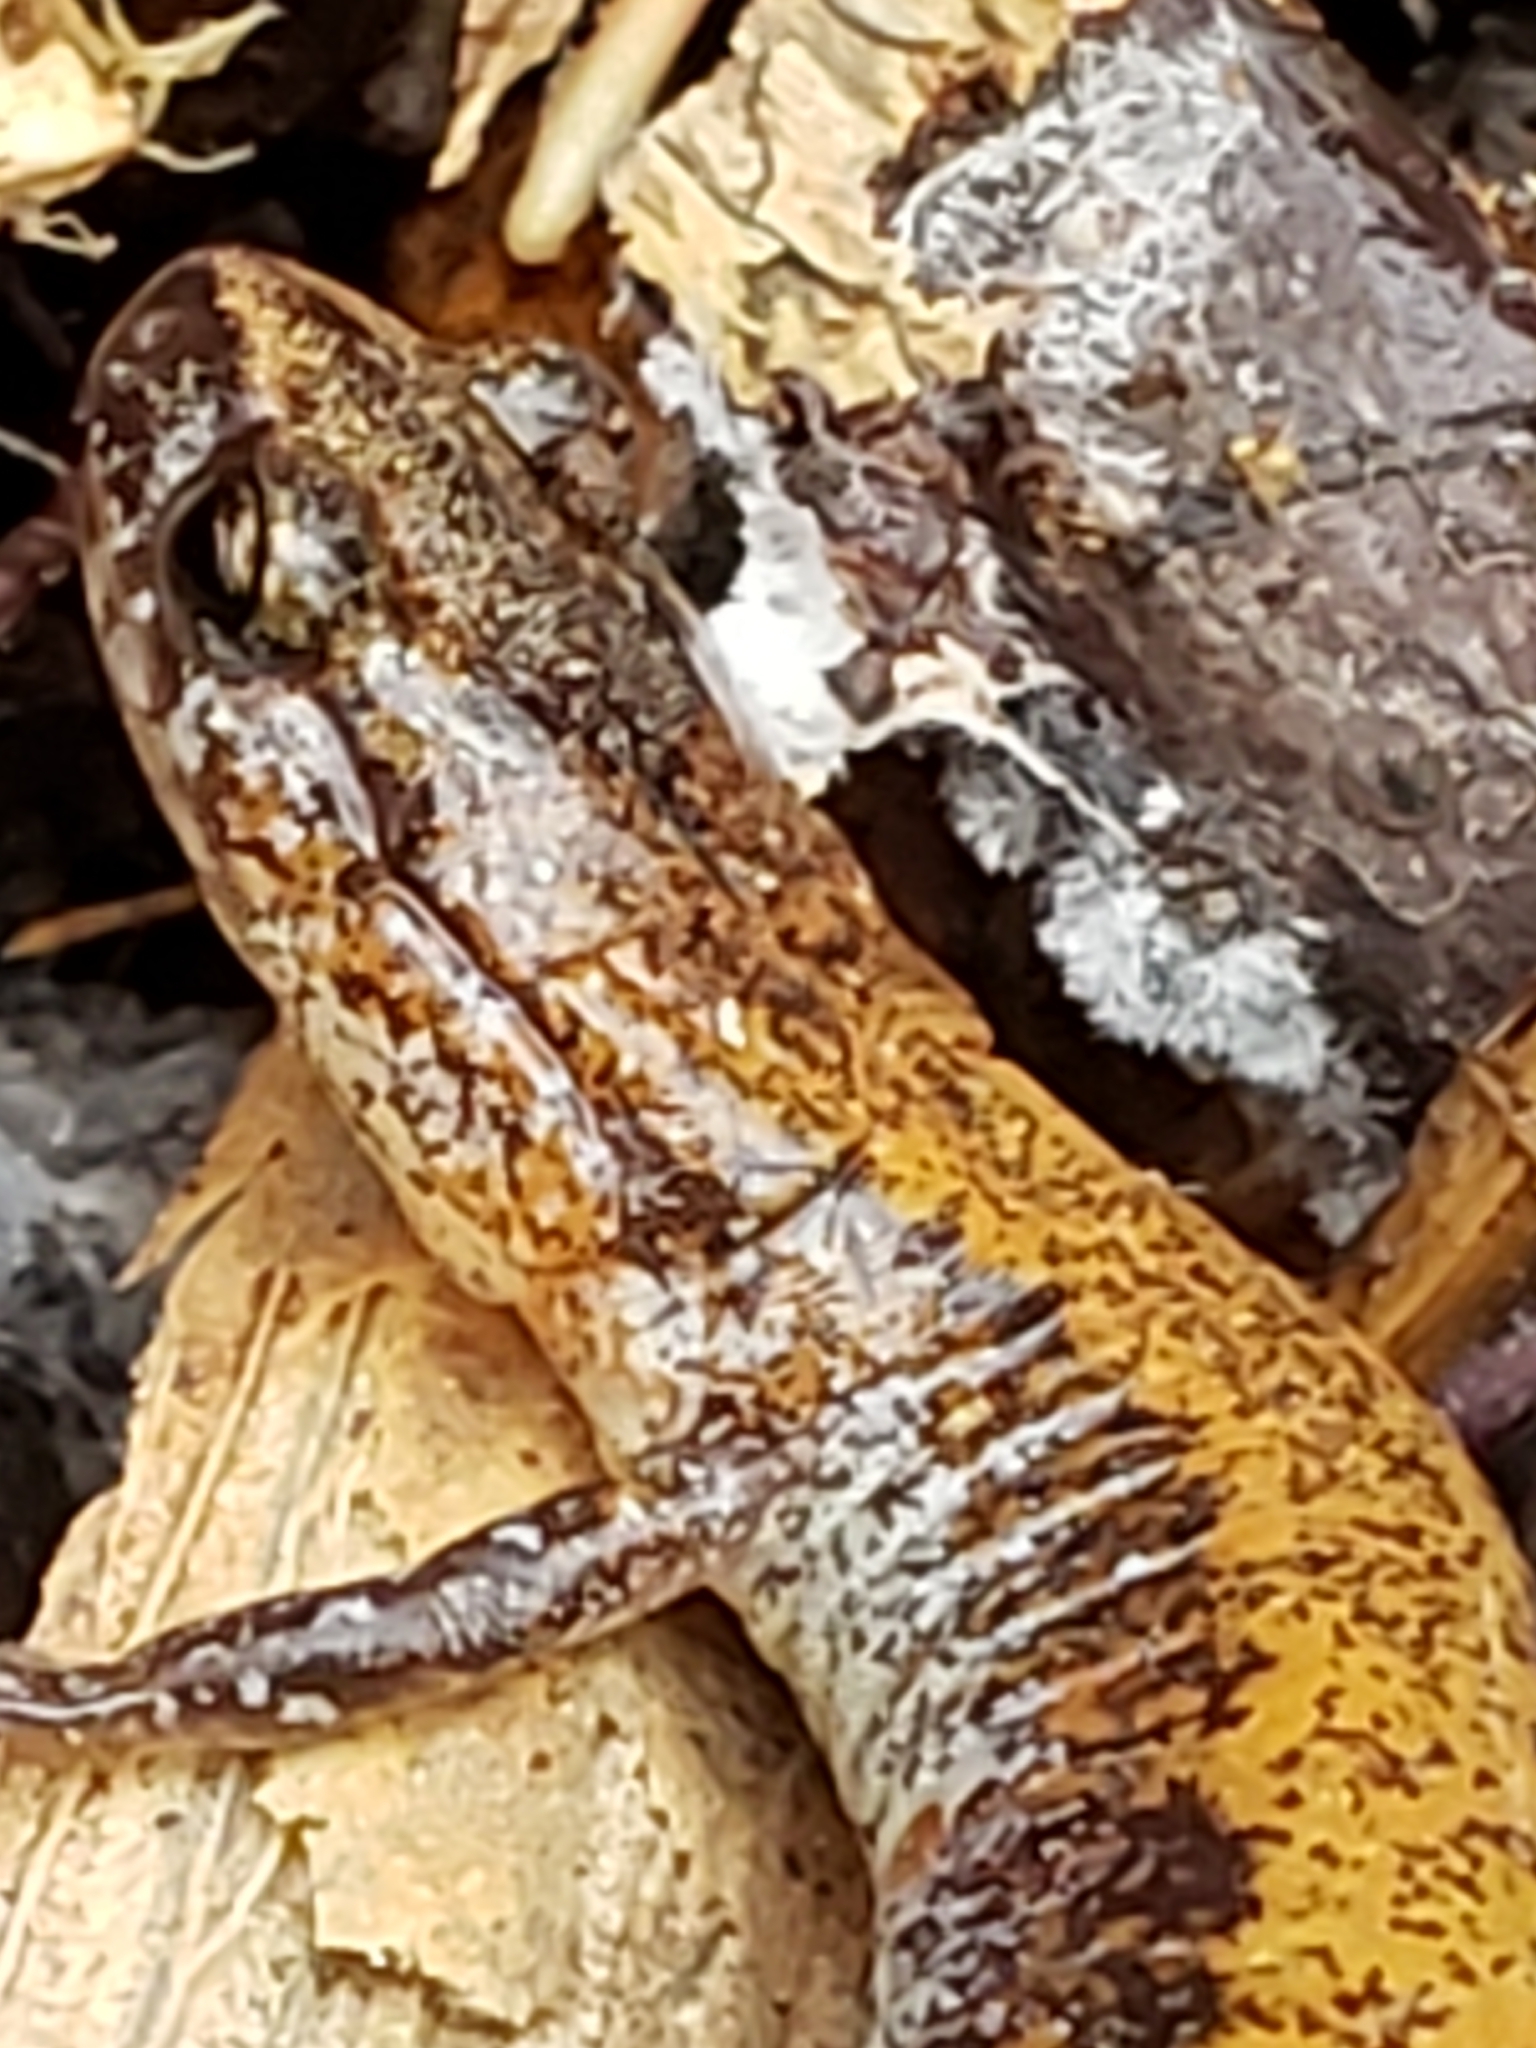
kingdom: Animalia
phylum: Chordata
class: Amphibia
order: Caudata
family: Plethodontidae
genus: Plethodon
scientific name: Plethodon cinereus
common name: Redback salamander
